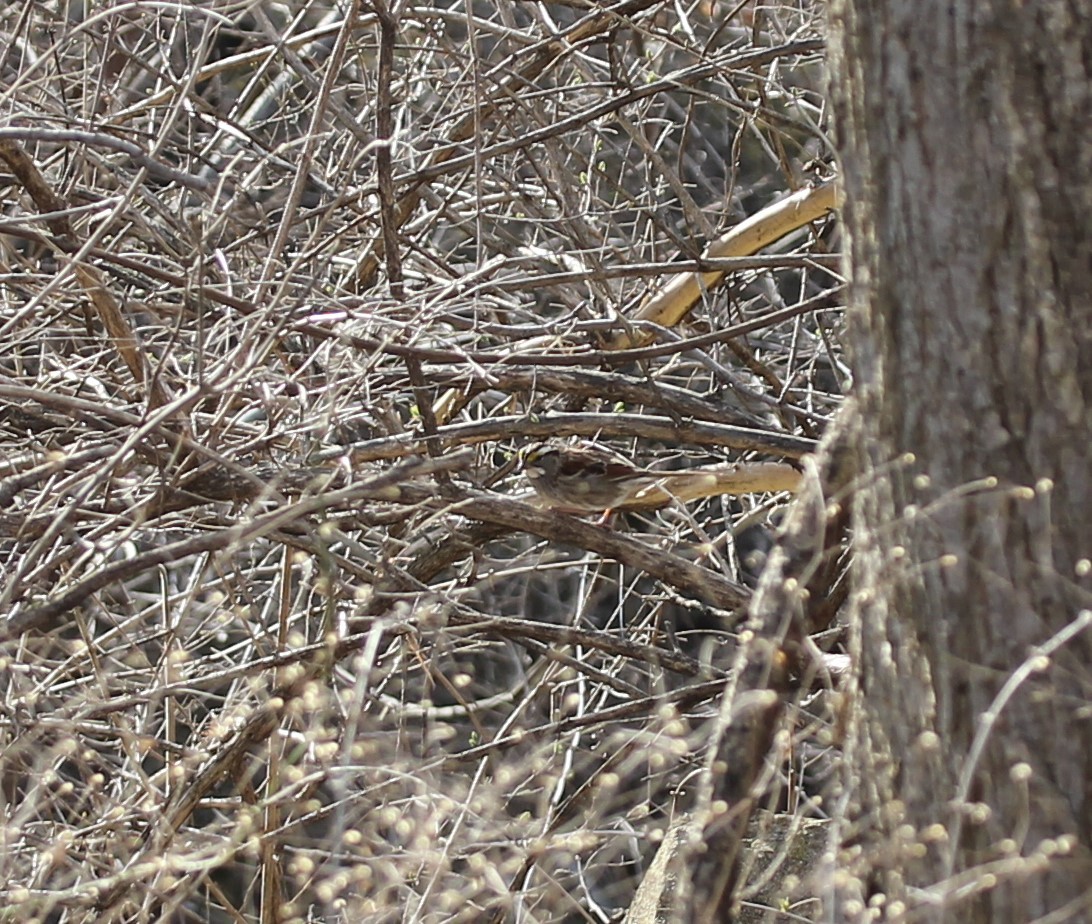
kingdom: Animalia
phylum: Chordata
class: Aves
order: Passeriformes
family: Passerellidae
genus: Zonotrichia
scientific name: Zonotrichia albicollis
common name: White-throated sparrow
